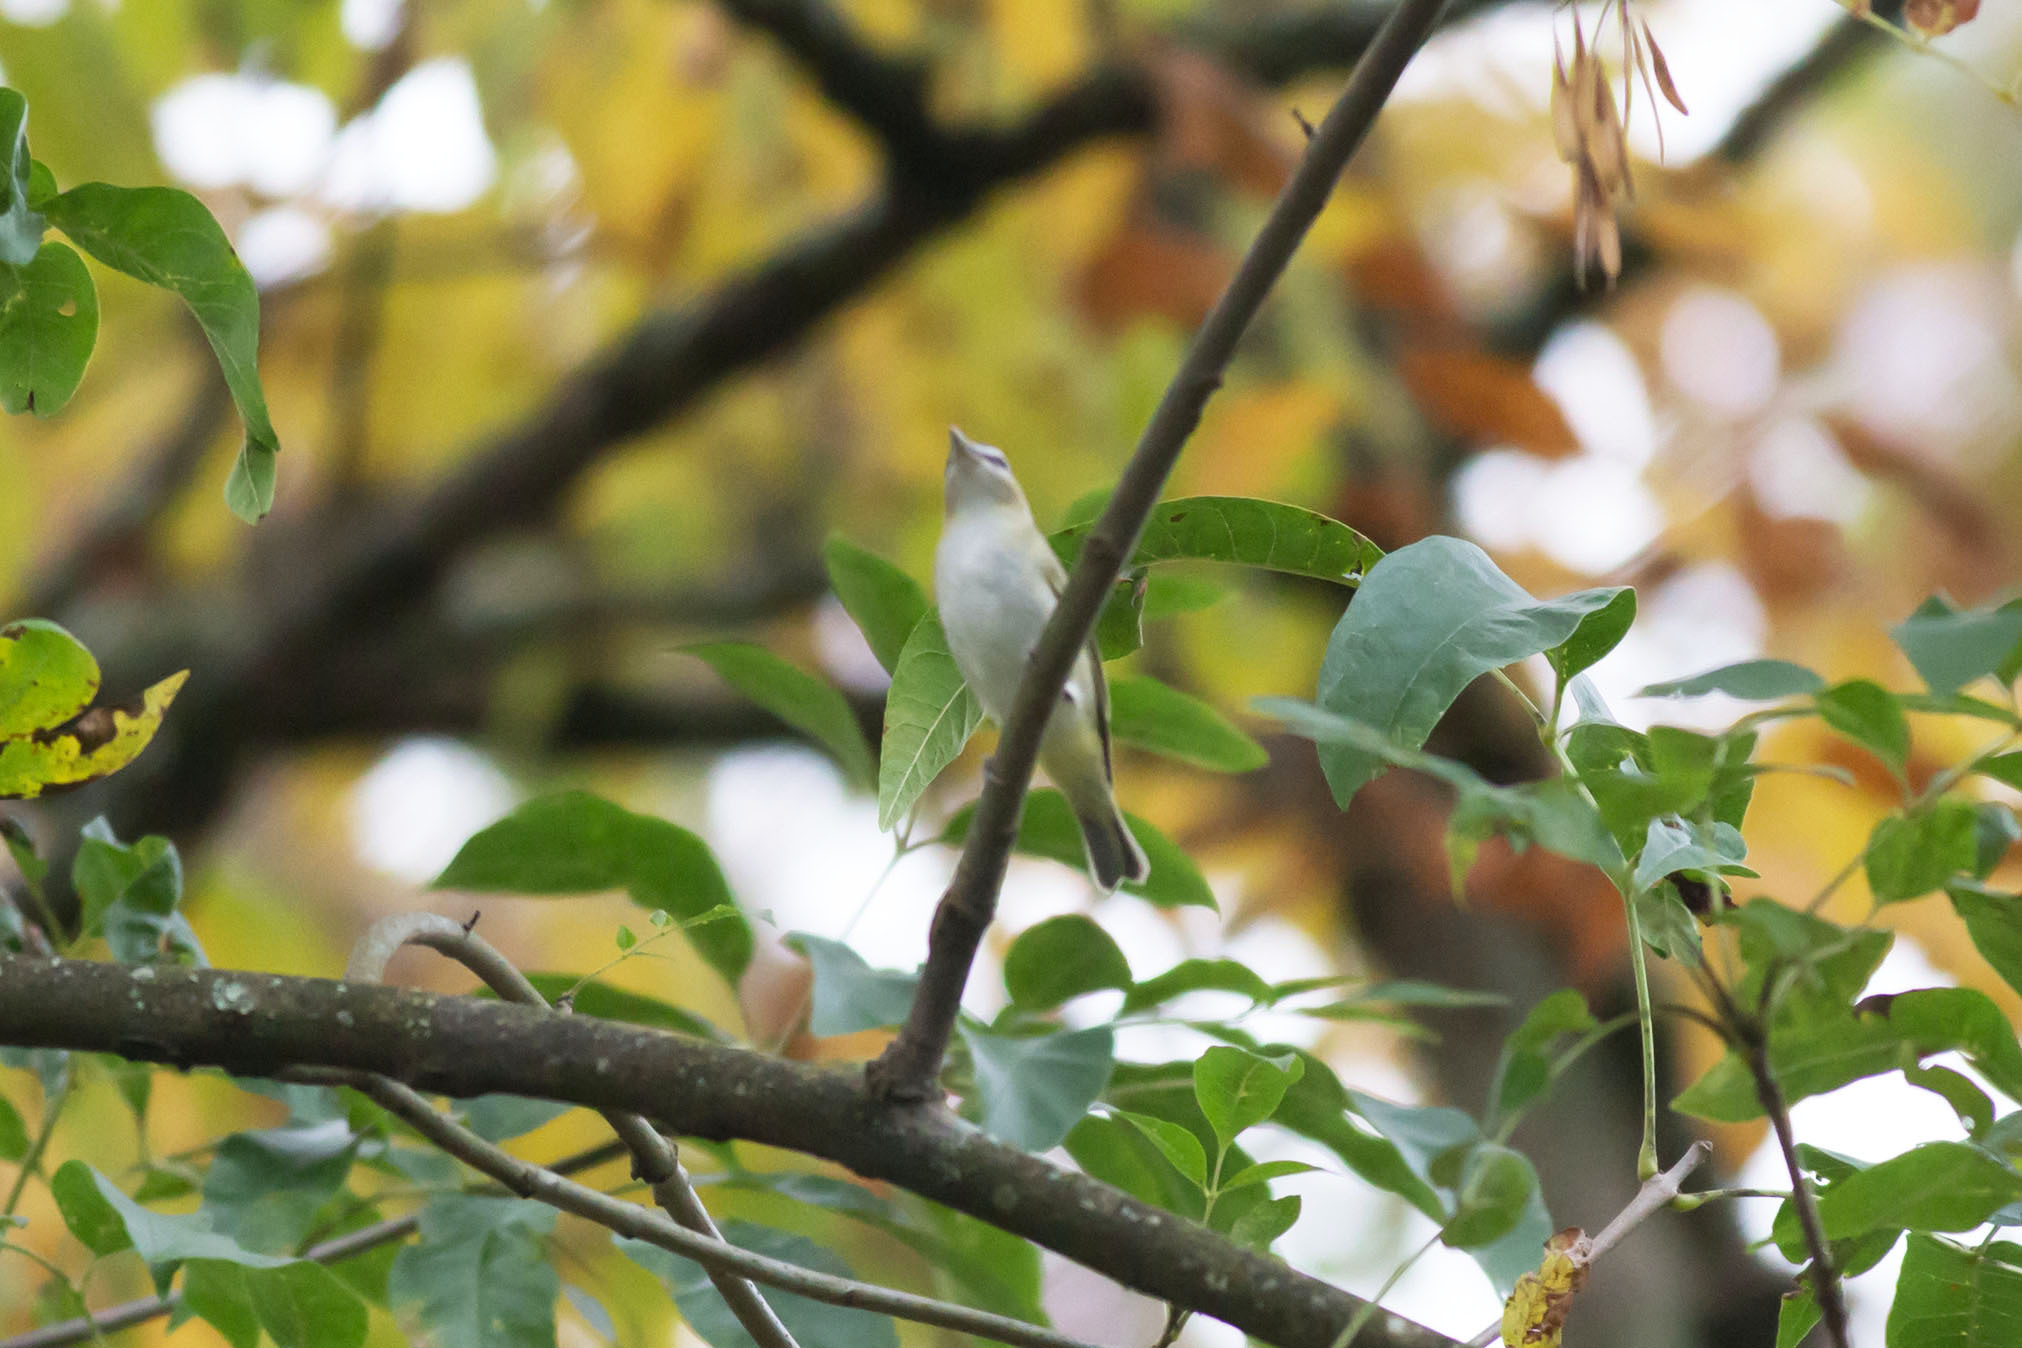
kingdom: Animalia
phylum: Chordata
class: Aves
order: Passeriformes
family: Vireonidae
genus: Vireo
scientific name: Vireo olivaceus
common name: Red-eyed vireo
